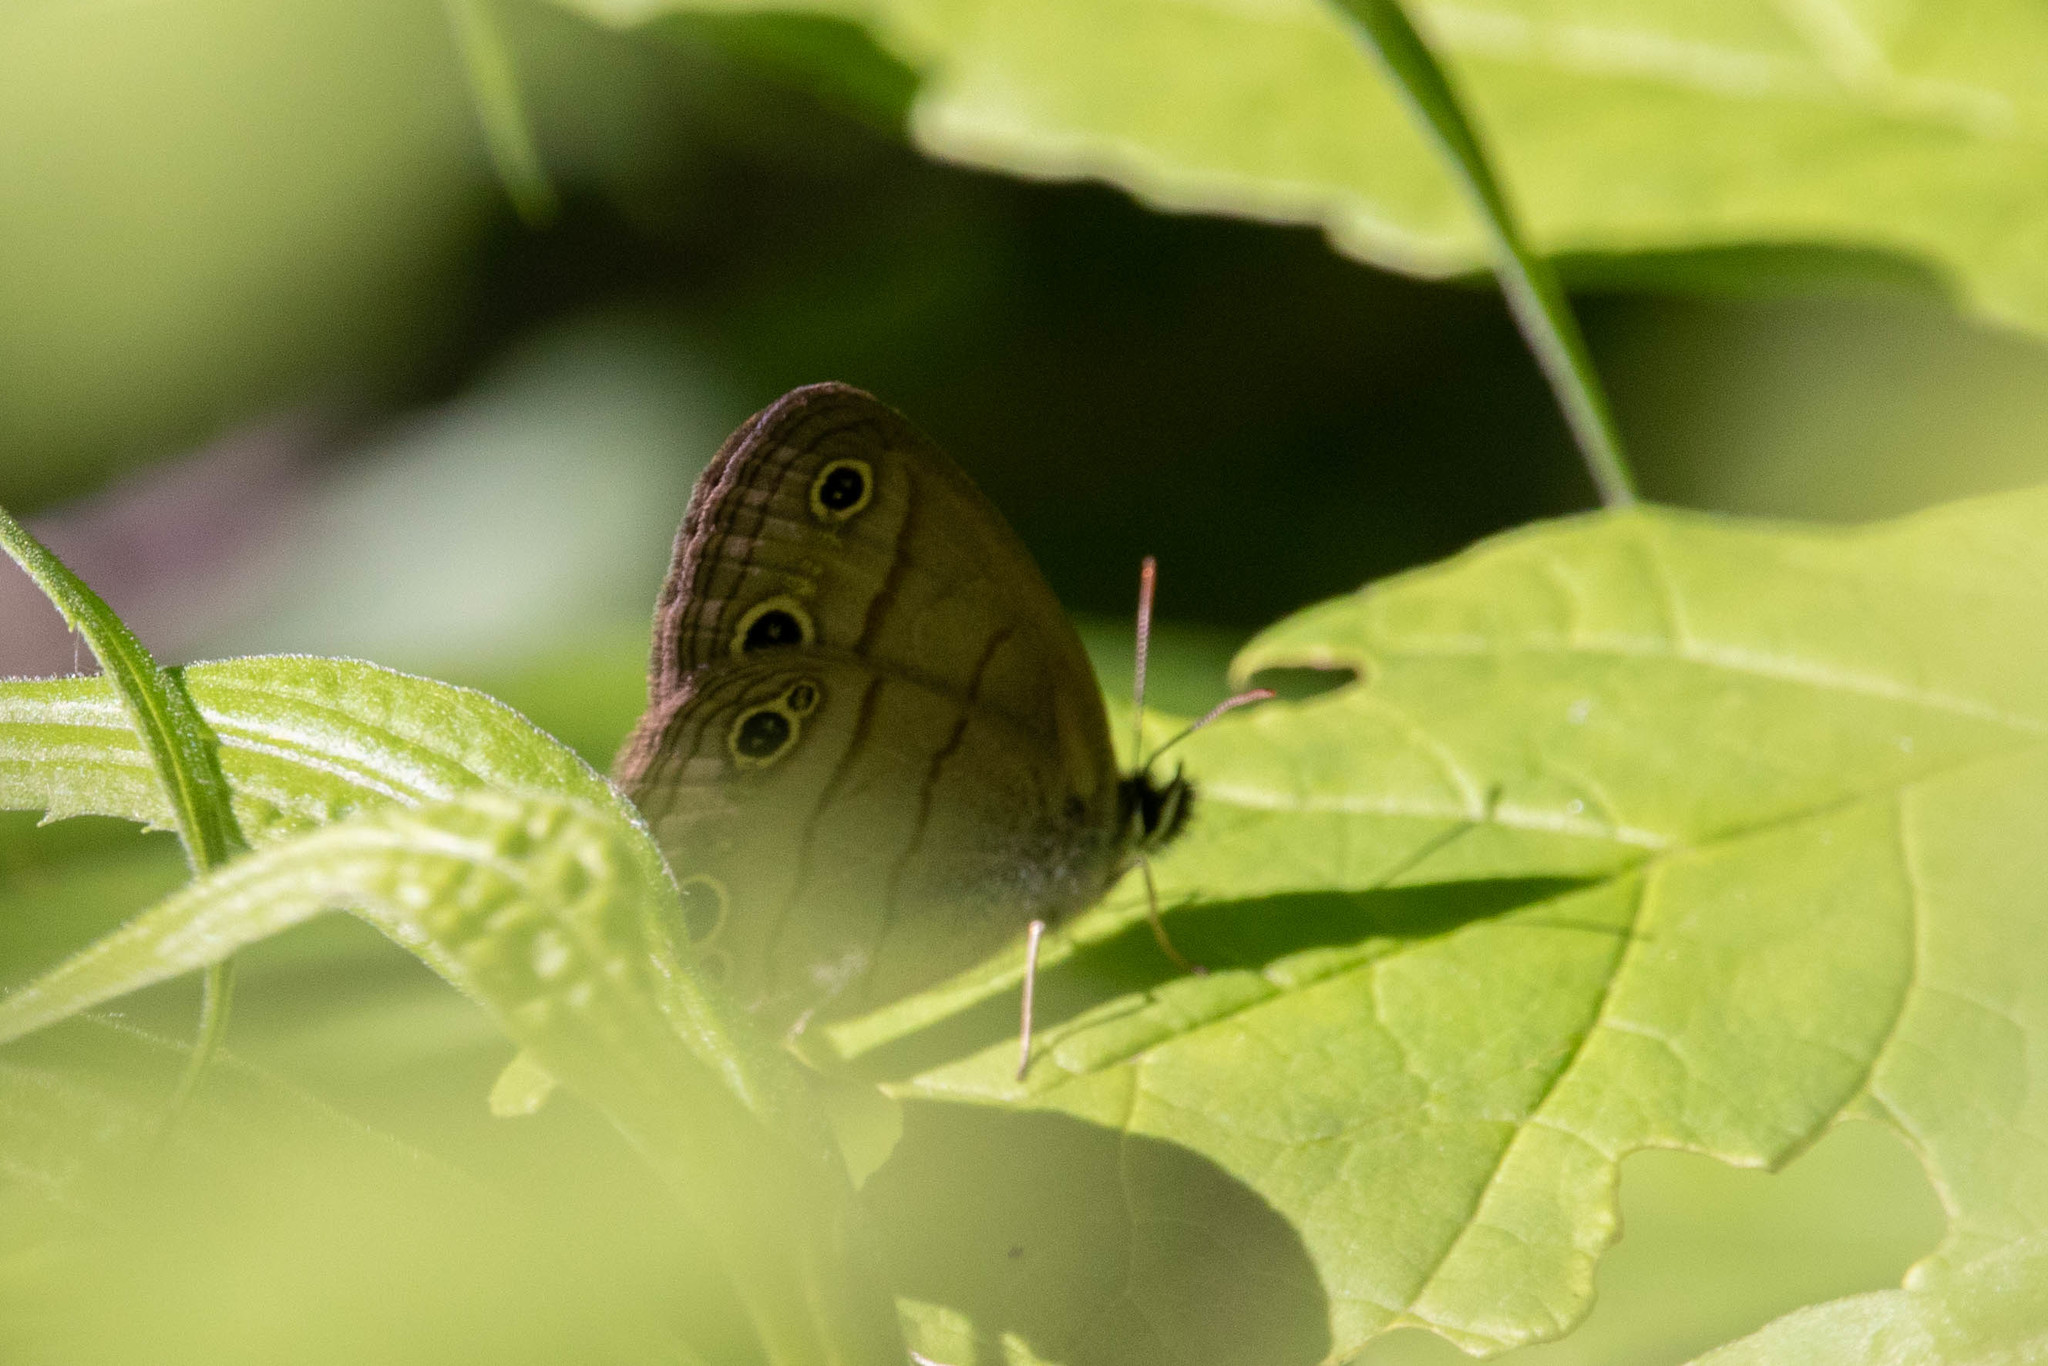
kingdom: Animalia
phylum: Arthropoda
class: Insecta
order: Lepidoptera
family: Nymphalidae
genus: Euptychia
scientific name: Euptychia cymela
